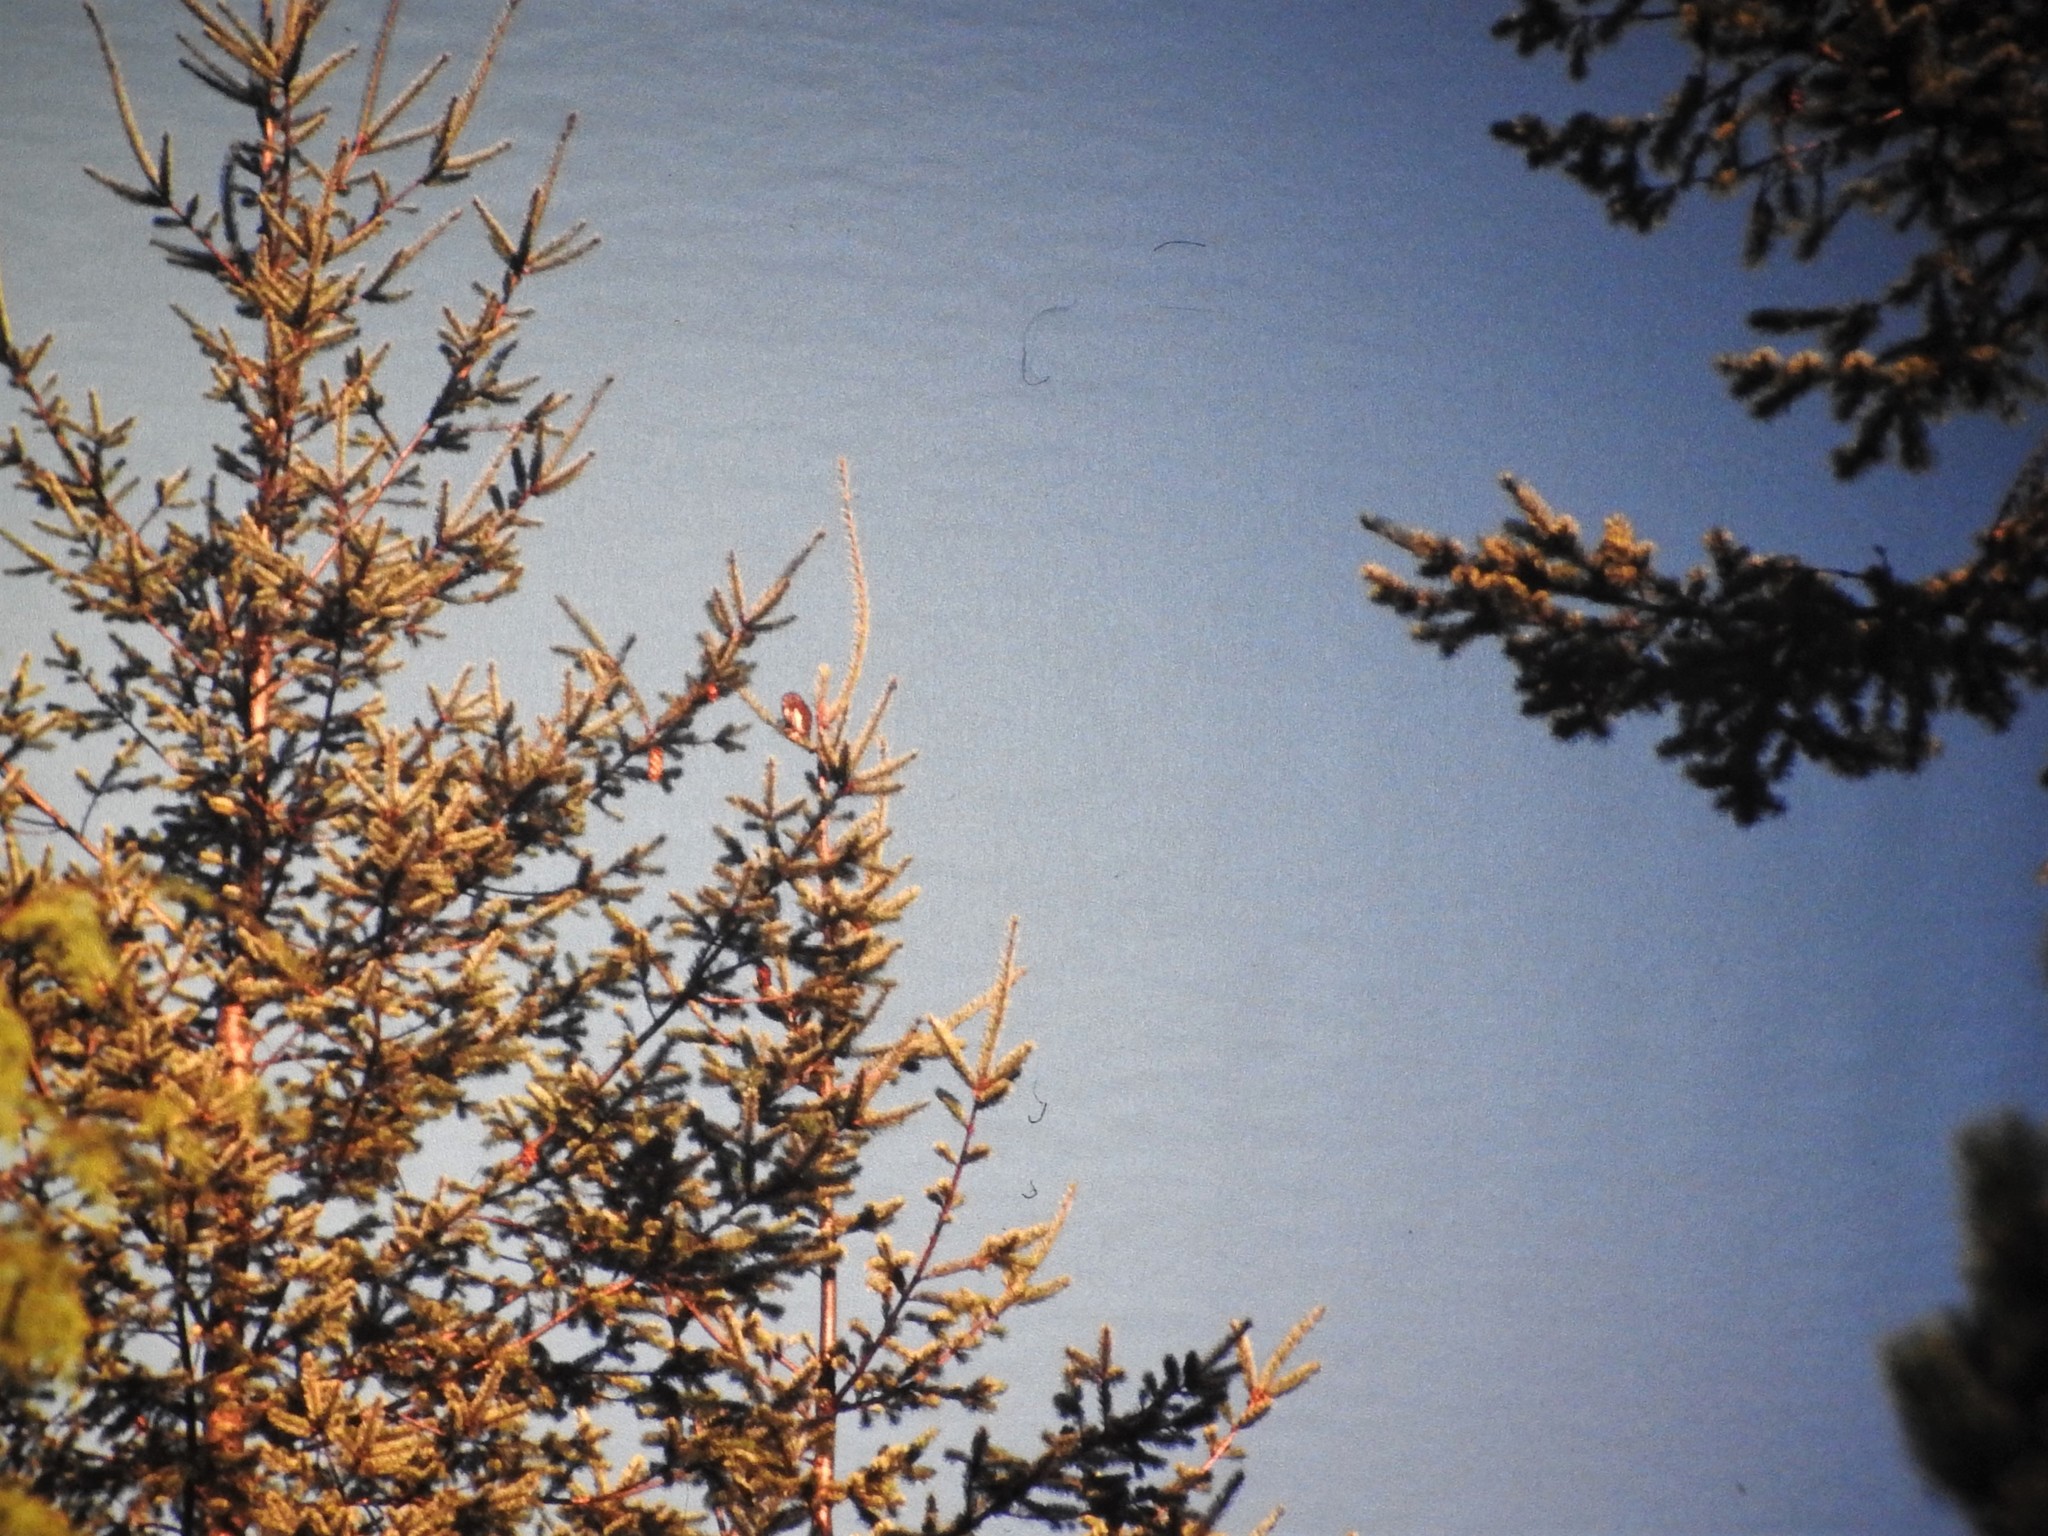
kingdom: Animalia
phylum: Chordata
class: Aves
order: Strigiformes
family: Strigidae
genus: Glaucidium
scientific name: Glaucidium gnoma
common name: Northern pygmy-owl
